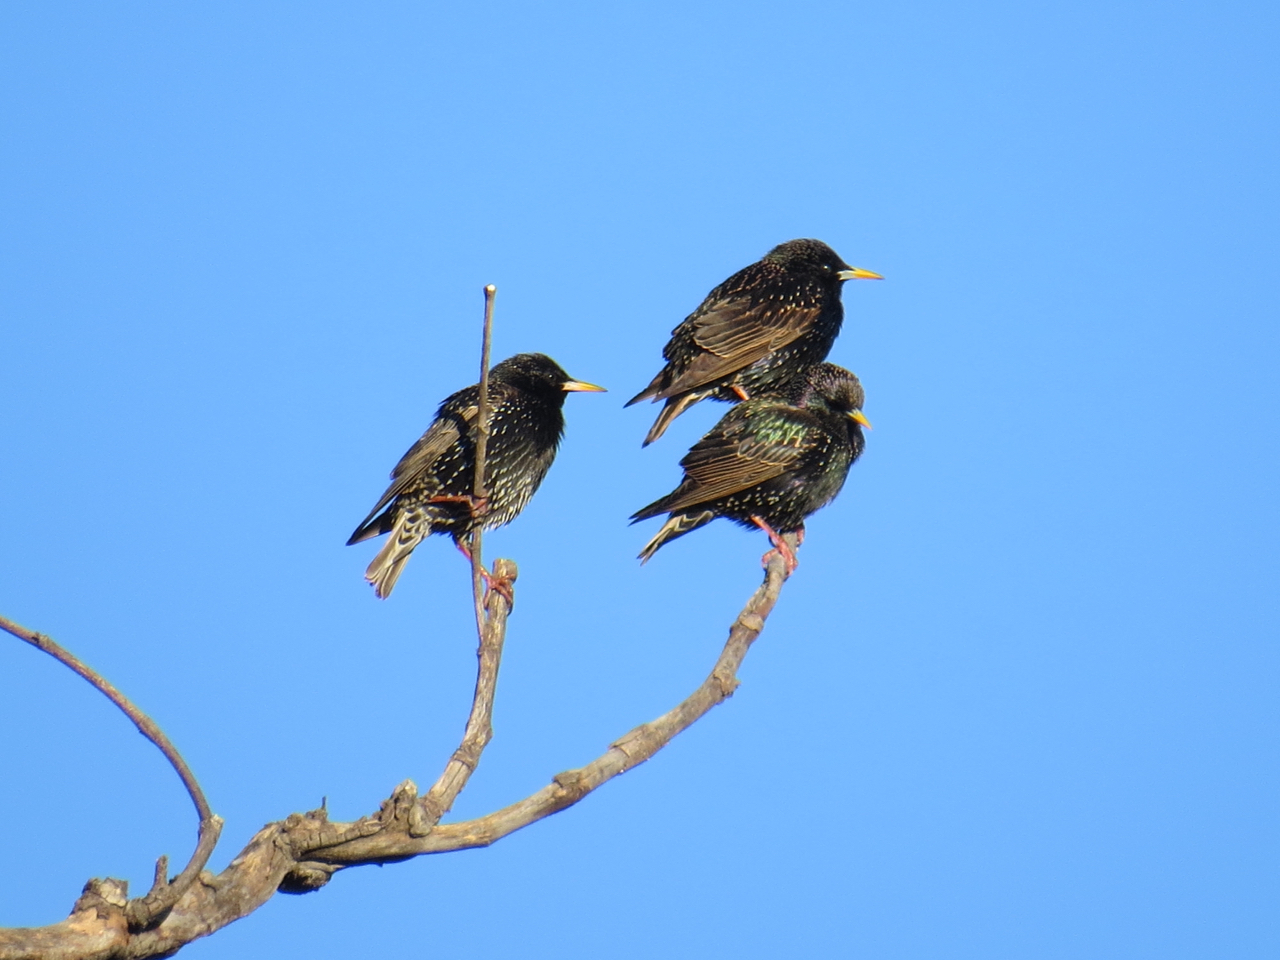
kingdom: Animalia
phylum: Chordata
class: Aves
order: Passeriformes
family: Sturnidae
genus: Sturnus
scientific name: Sturnus vulgaris
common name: Common starling
